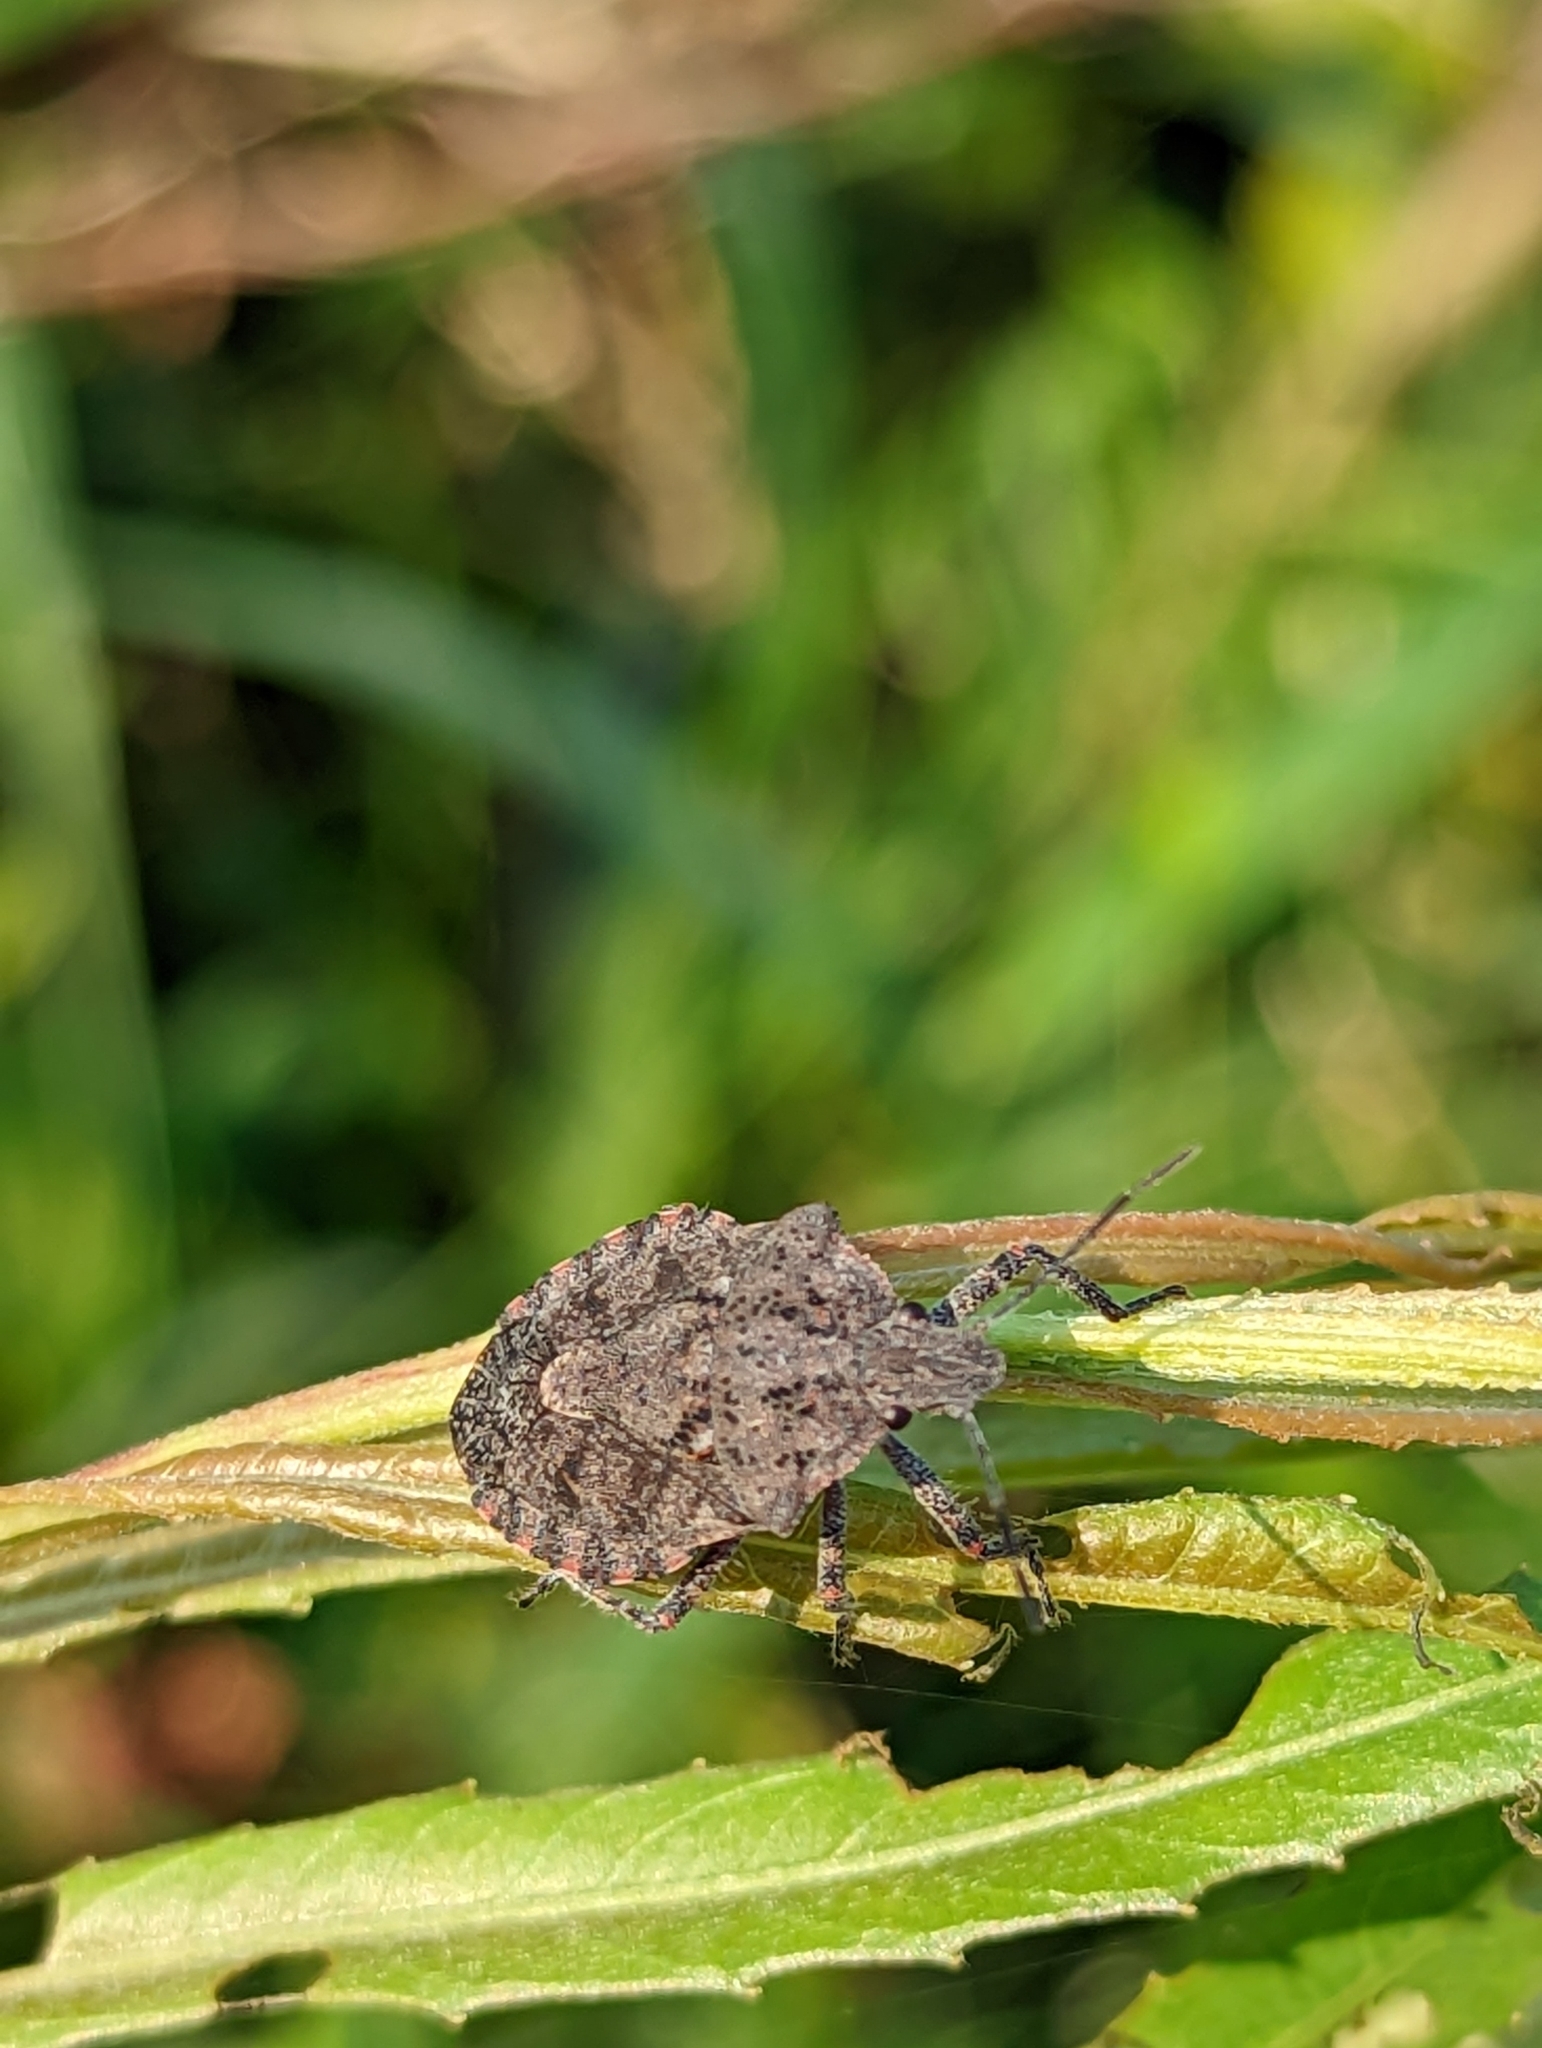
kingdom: Animalia
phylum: Arthropoda
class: Insecta
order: Hemiptera
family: Pentatomidae
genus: Brochymena
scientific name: Brochymena quadripustulata
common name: Four-humped stink bug
